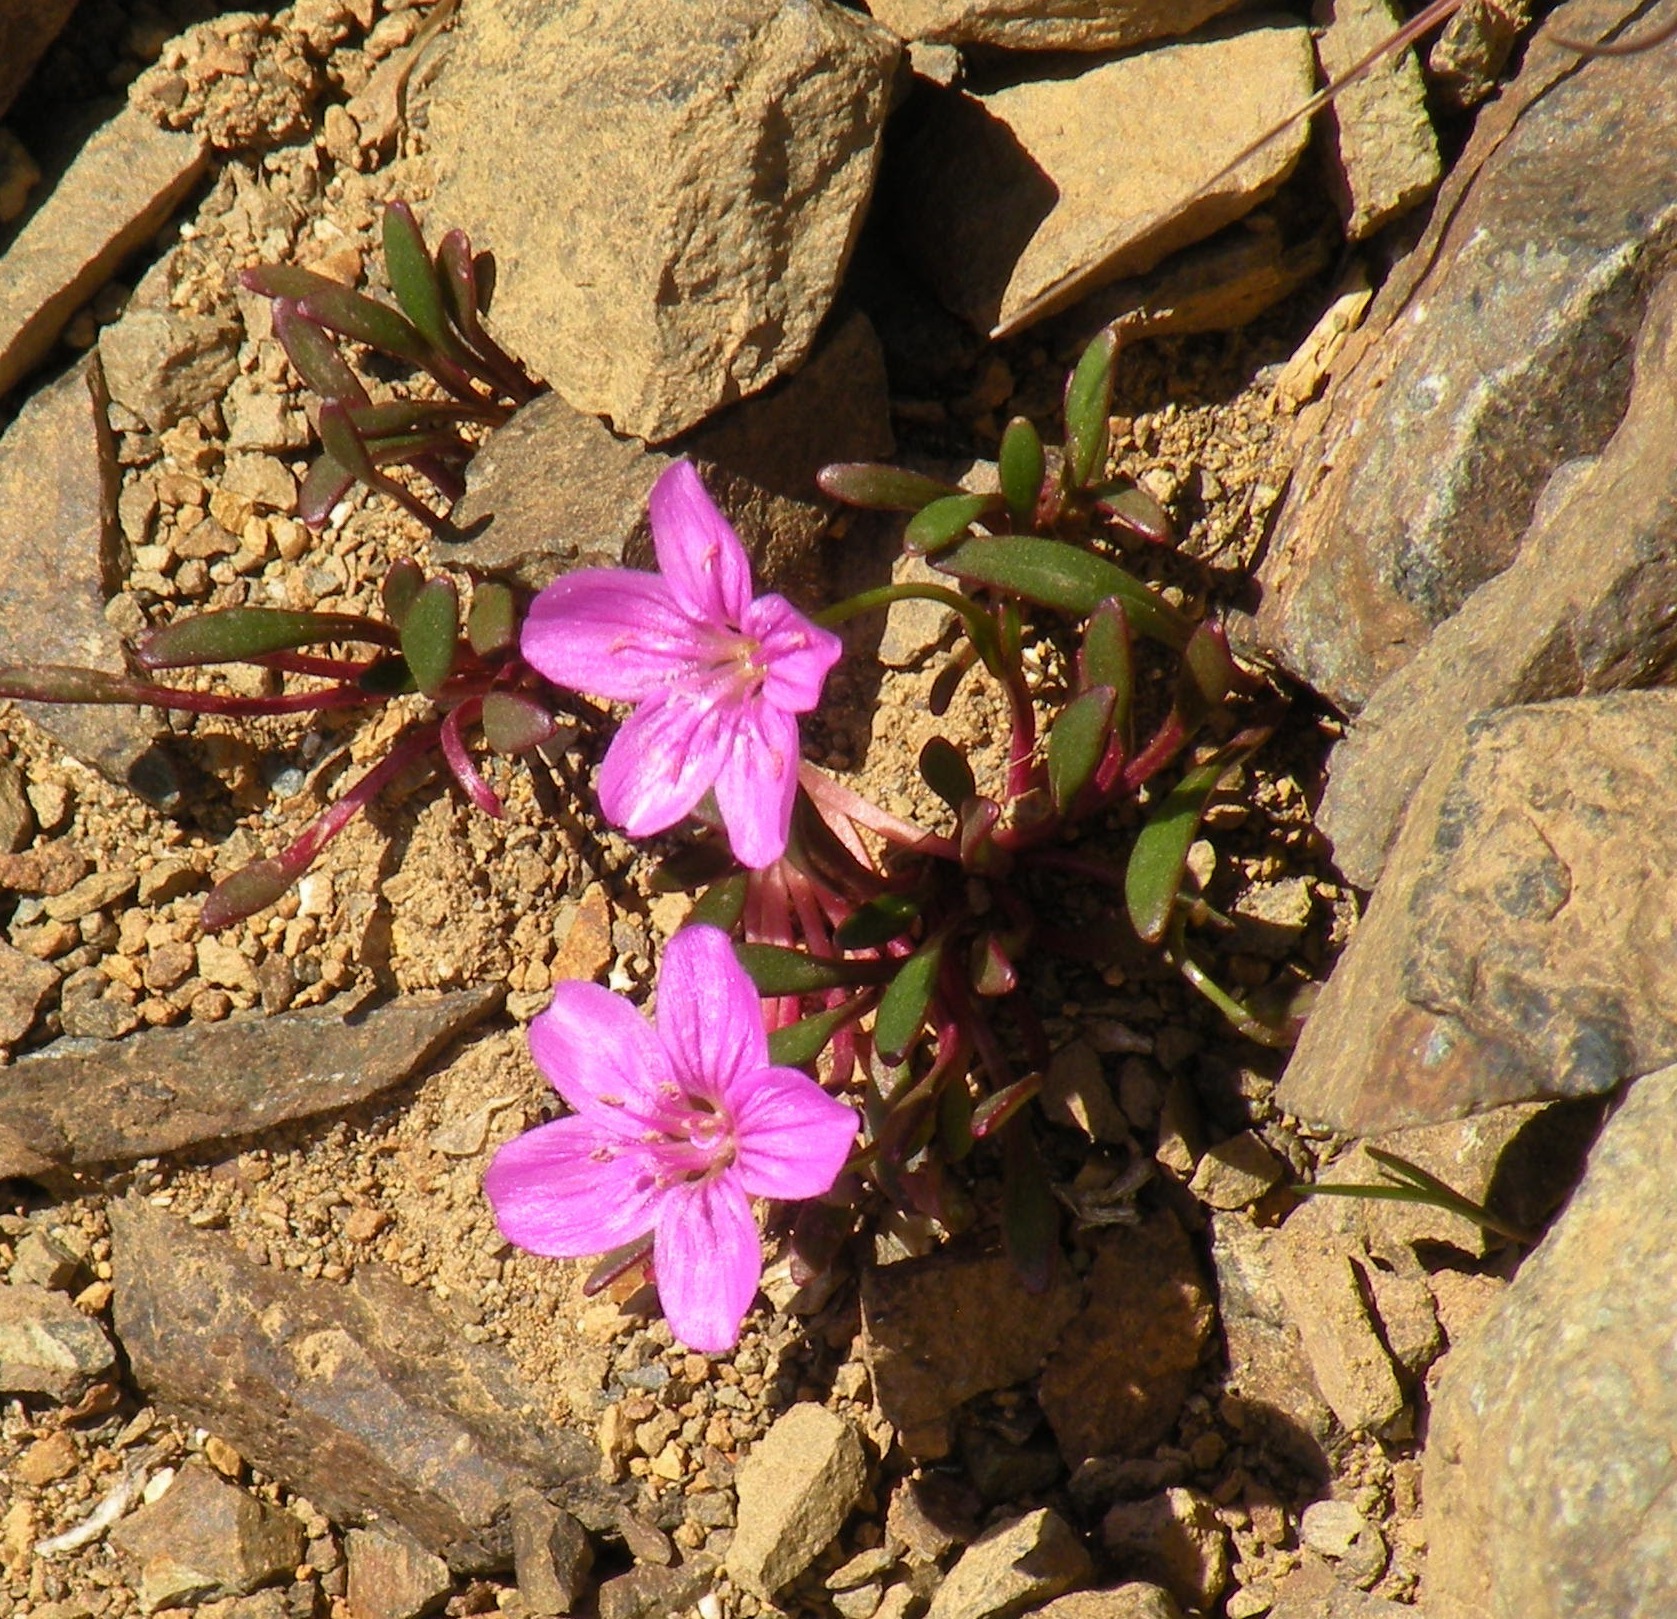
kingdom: Plantae
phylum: Tracheophyta
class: Magnoliopsida
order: Caryophyllales
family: Montiaceae
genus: Claytonia
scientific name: Claytonia scammaniana
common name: Scamman's claytonia
